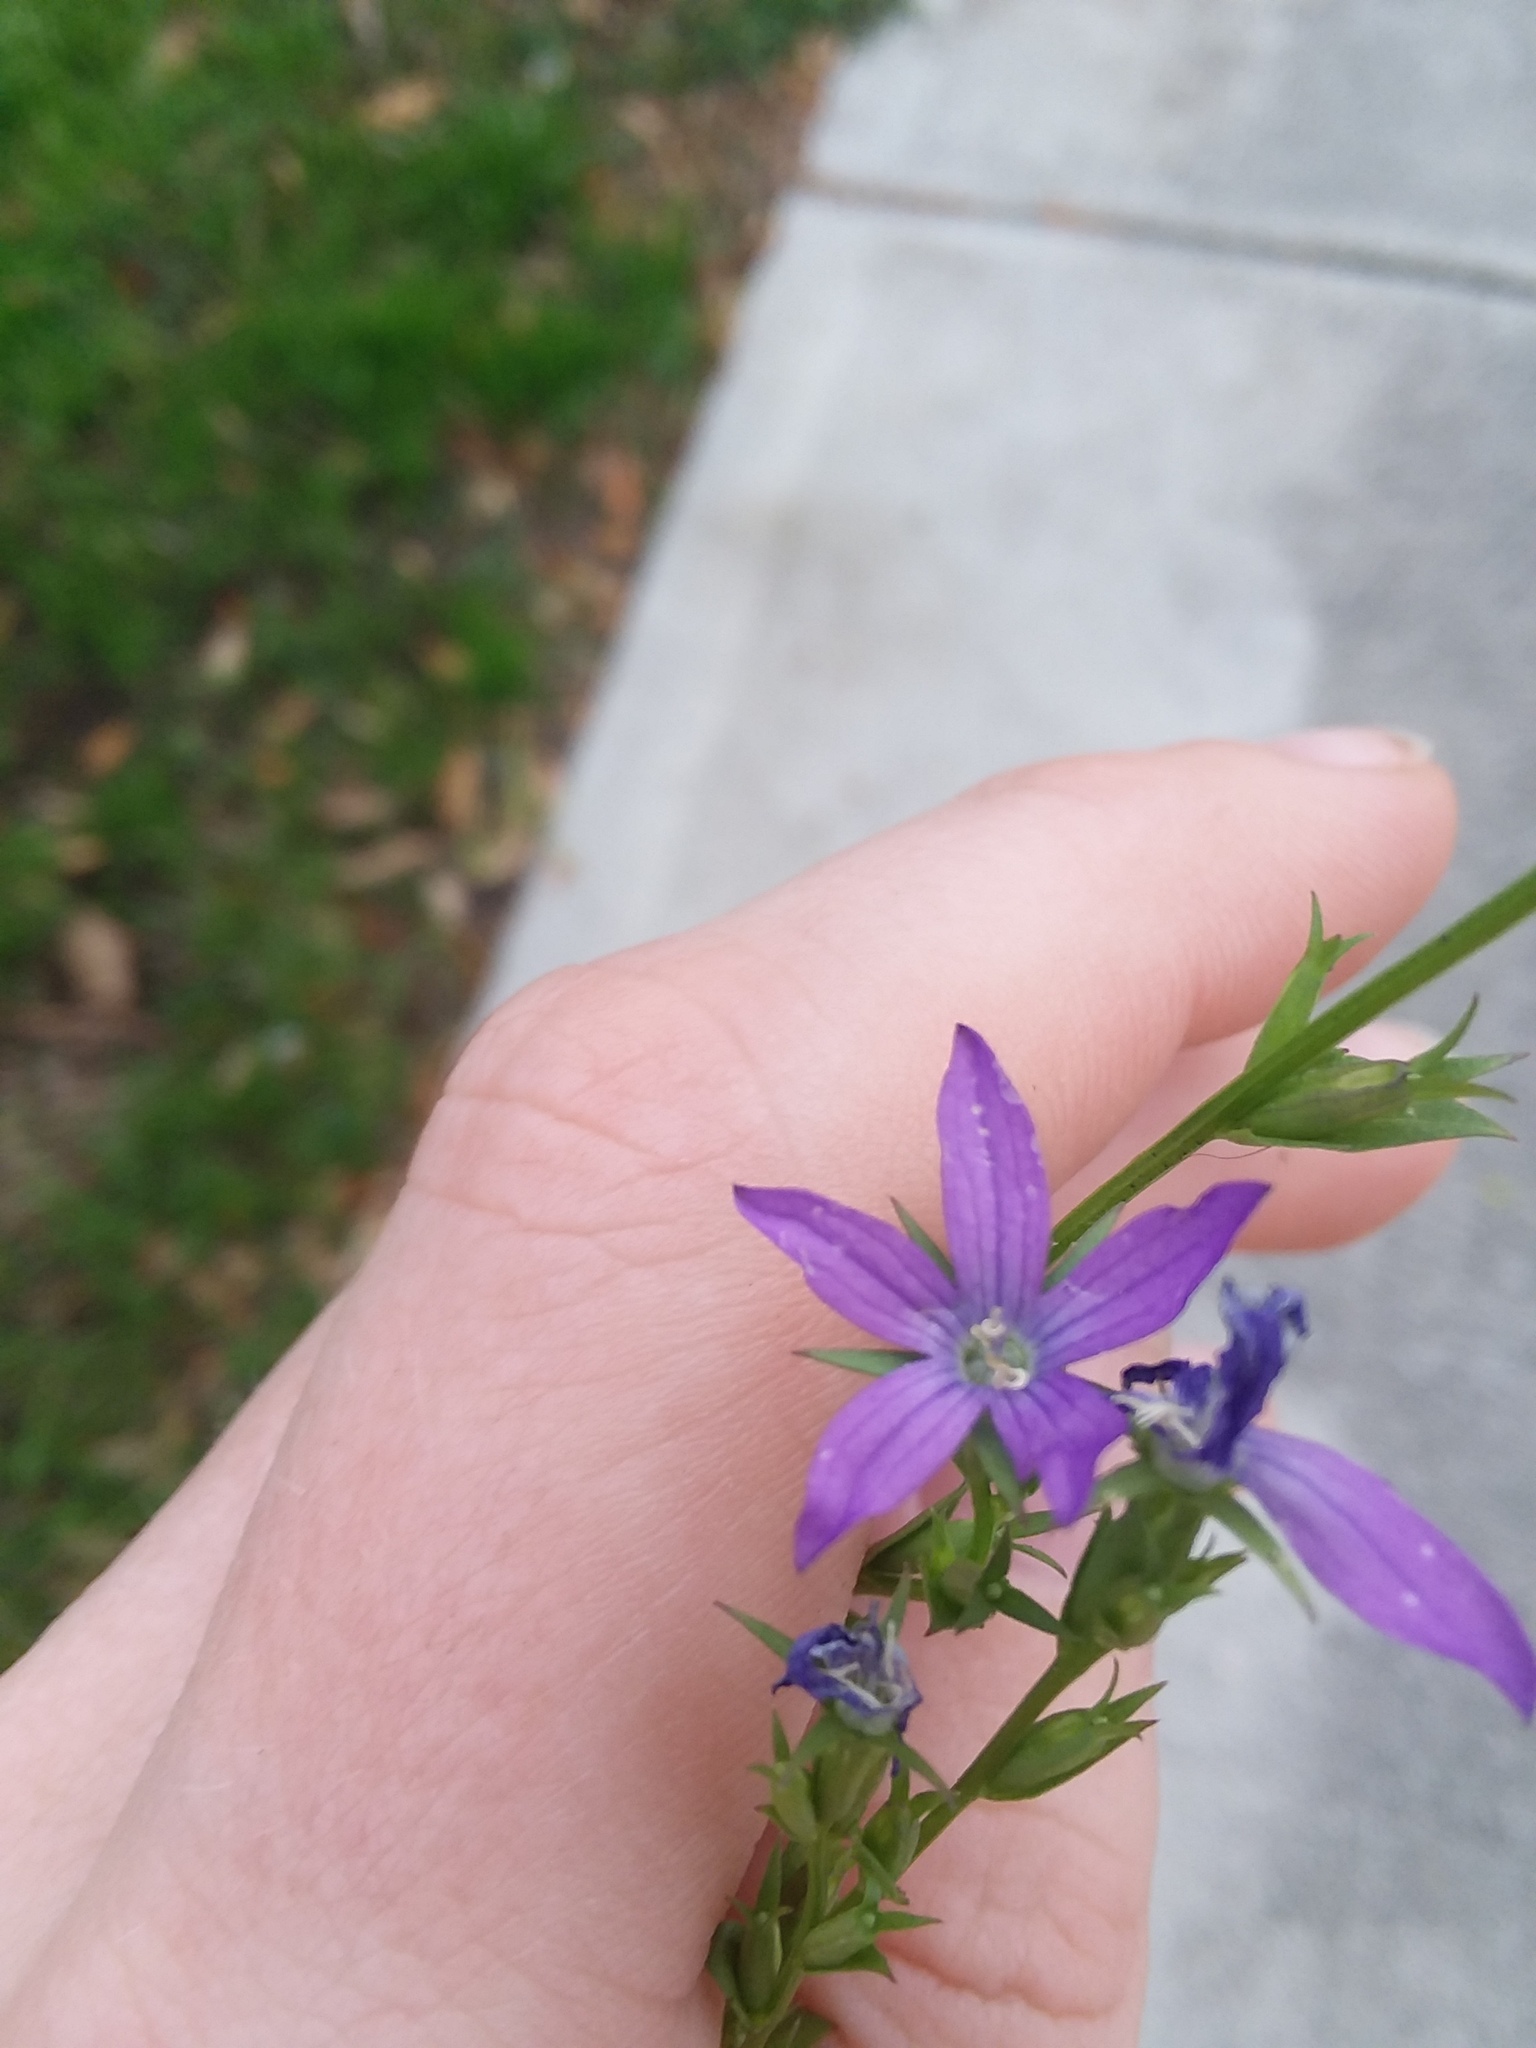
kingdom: Plantae
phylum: Tracheophyta
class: Magnoliopsida
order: Asterales
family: Campanulaceae
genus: Triodanis
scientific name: Triodanis biflora
